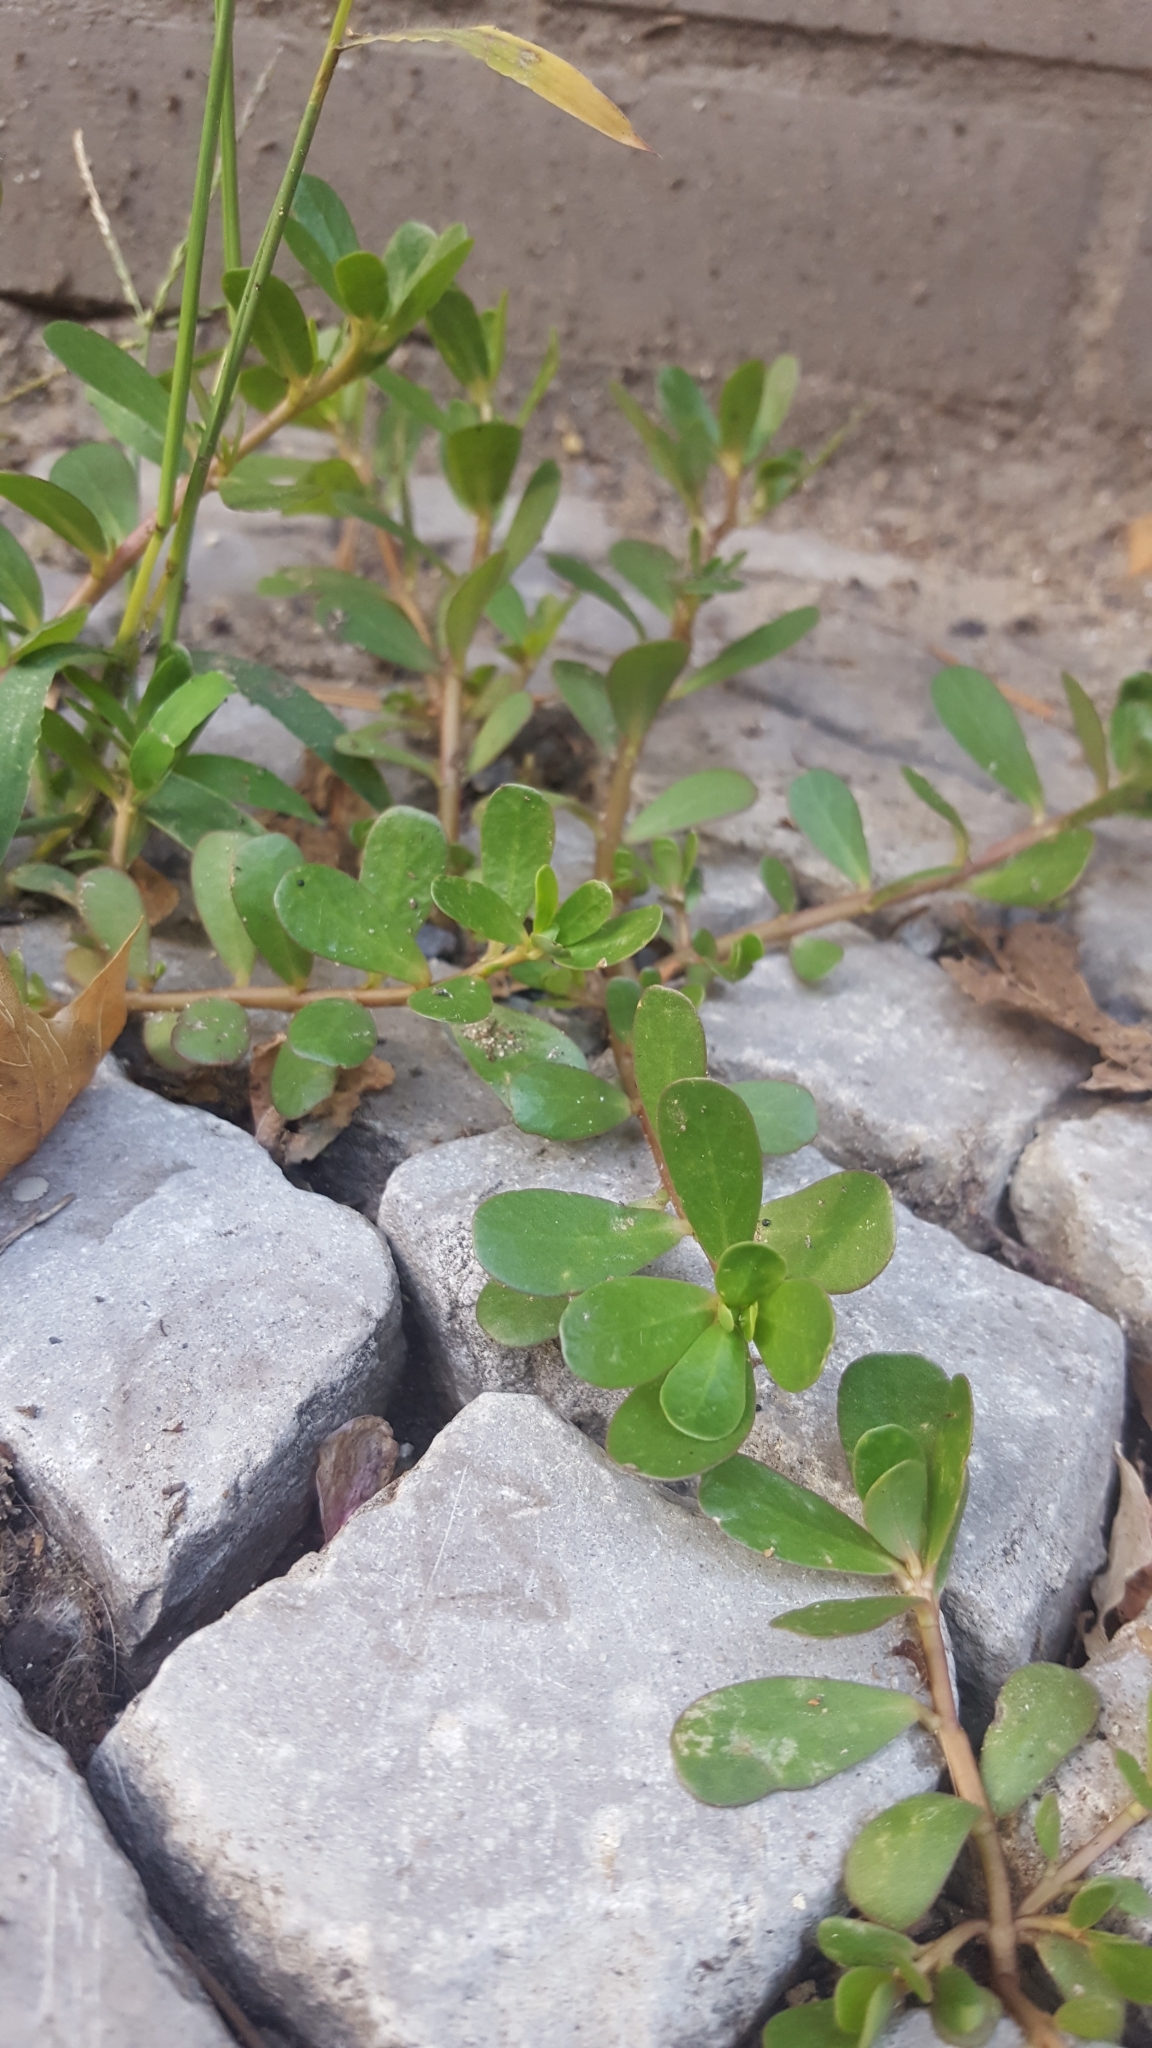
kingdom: Plantae
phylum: Tracheophyta
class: Magnoliopsida
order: Caryophyllales
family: Portulacaceae
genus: Portulaca
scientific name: Portulaca oleracea
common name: Common purslane
